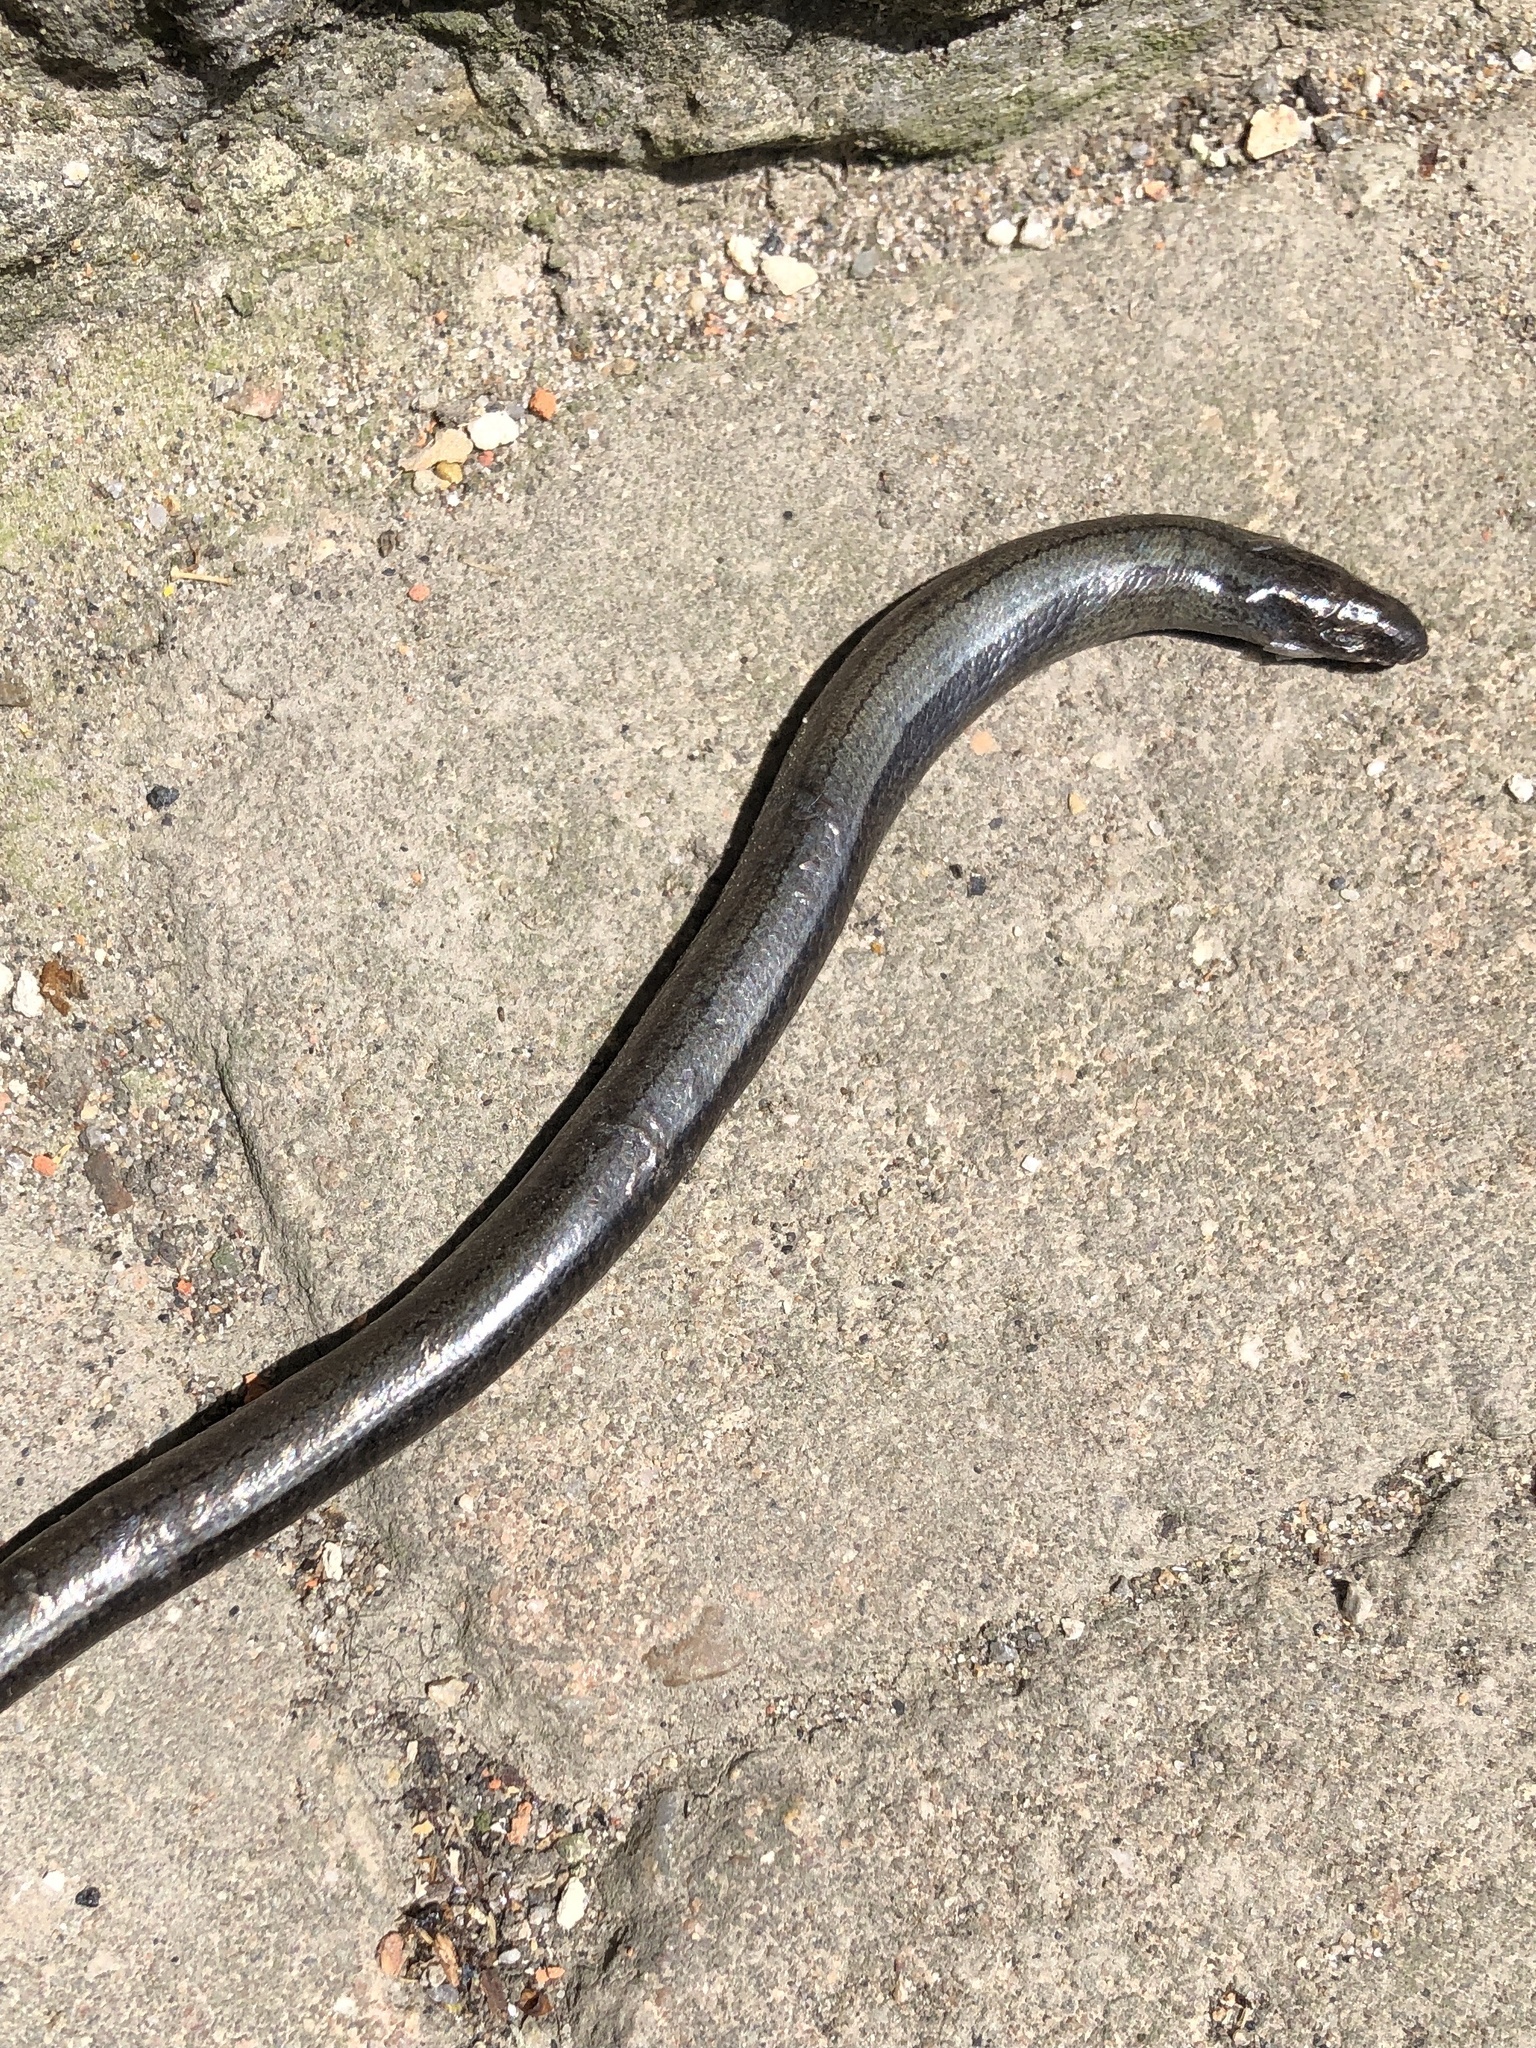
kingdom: Animalia
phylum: Chordata
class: Squamata
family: Anguidae
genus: Anguis
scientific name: Anguis fragilis
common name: Slow worm
